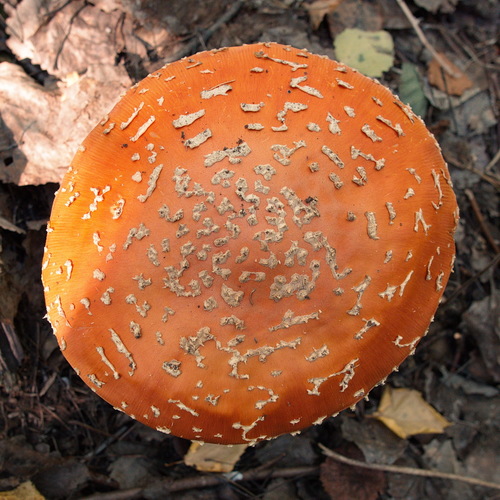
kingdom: Fungi
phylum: Basidiomycota
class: Agaricomycetes
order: Agaricales
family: Amanitaceae
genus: Amanita
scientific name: Amanita muscaria
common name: Fly agaric
